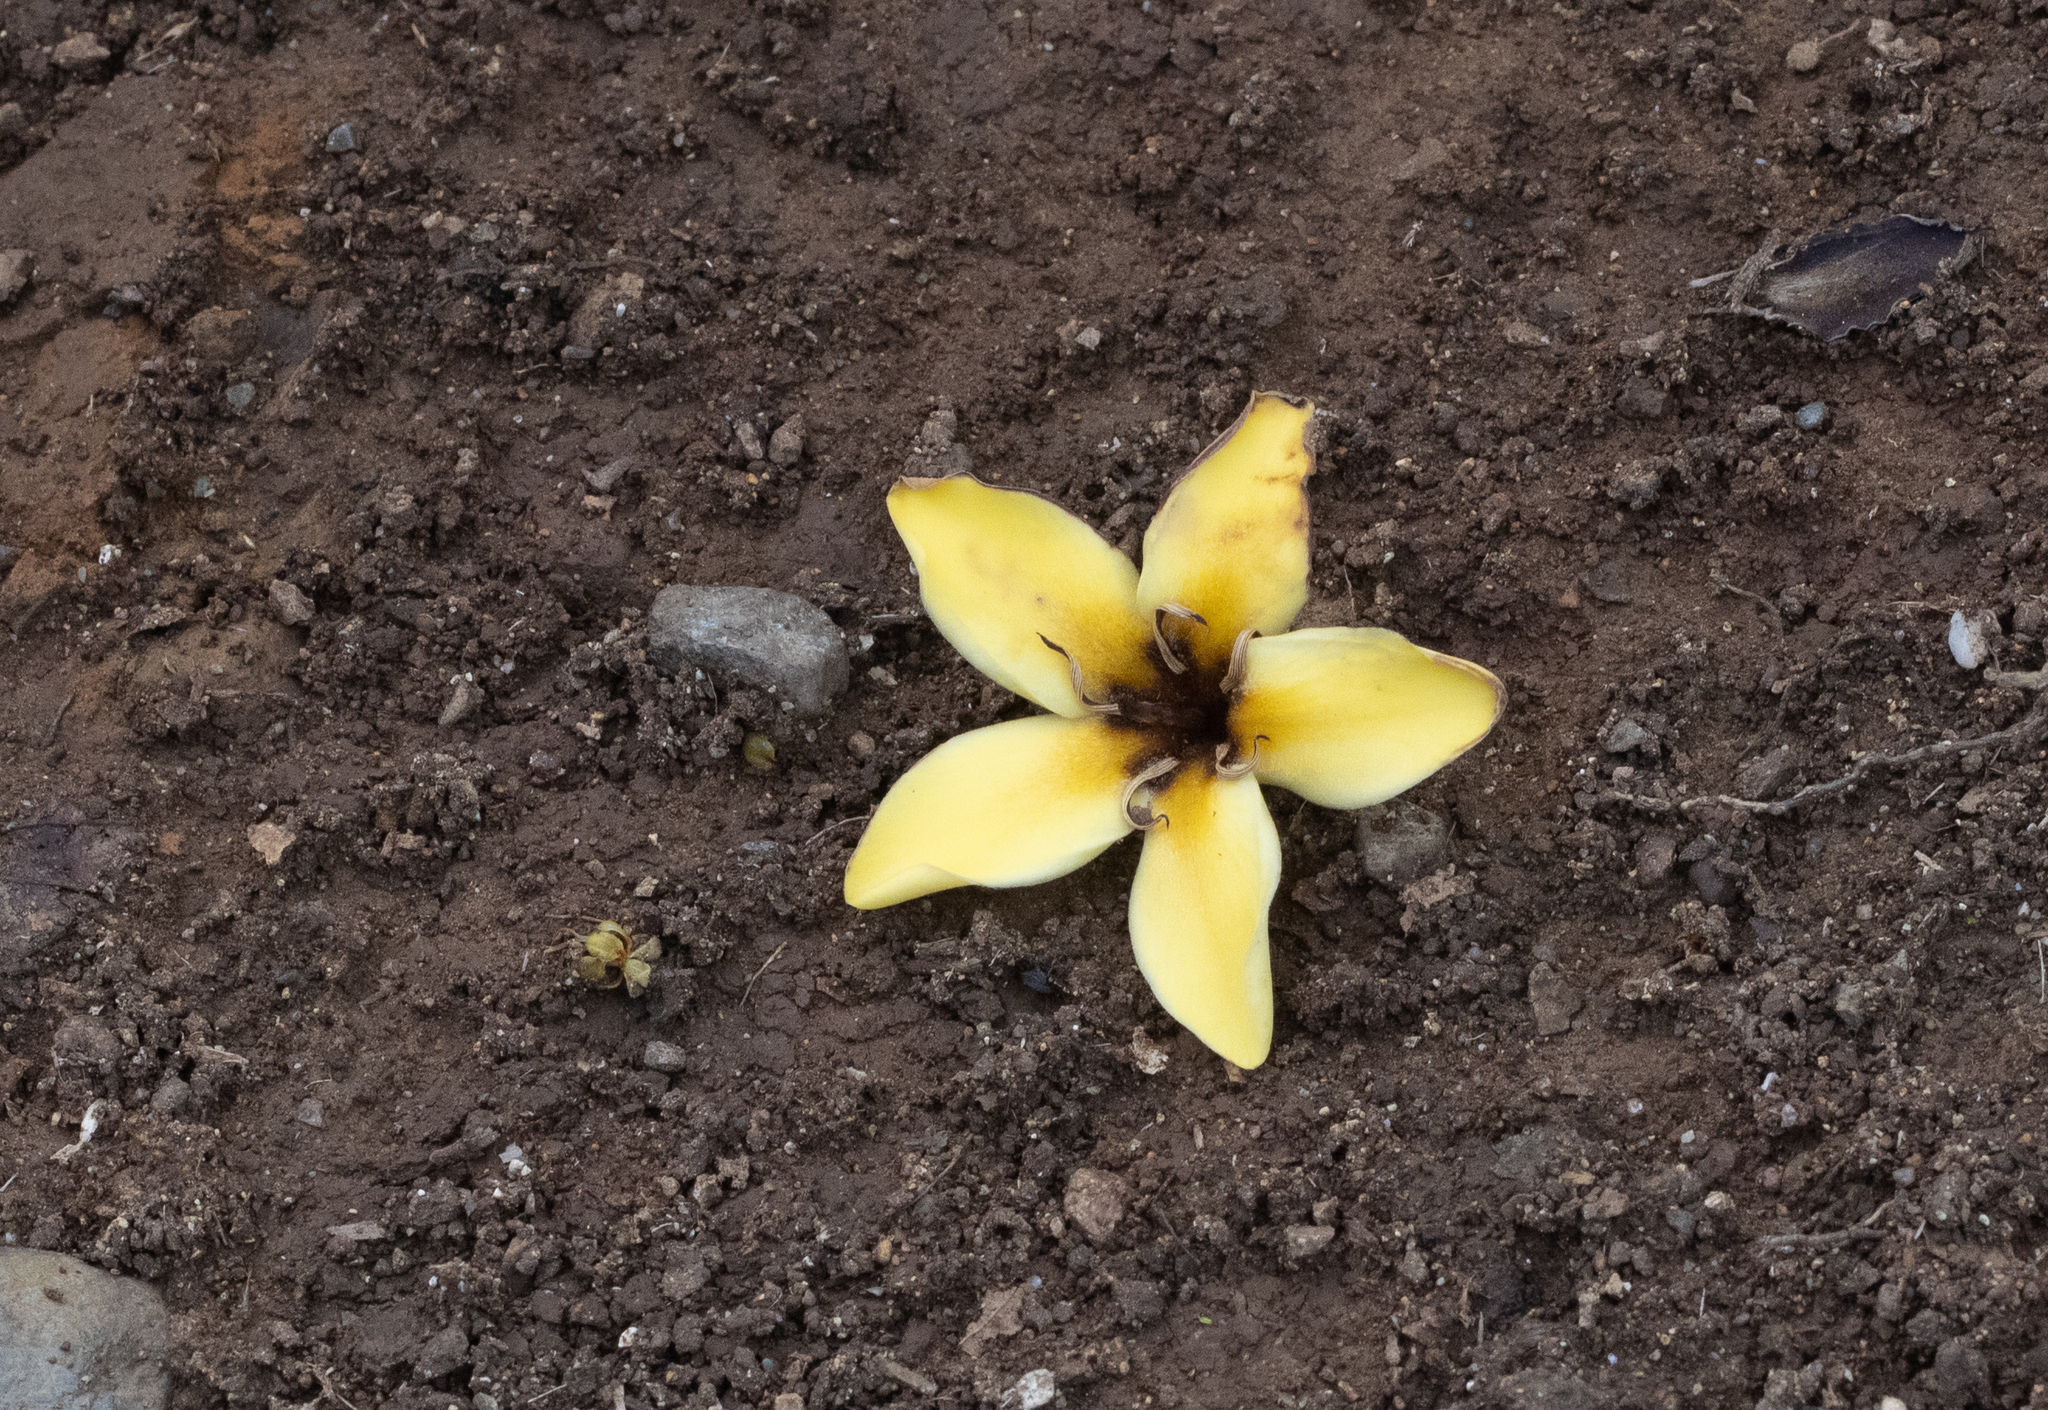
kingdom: Plantae
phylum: Tracheophyta
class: Magnoliopsida
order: Gentianales
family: Rubiaceae
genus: Genipa
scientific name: Genipa americana
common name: Genipap
